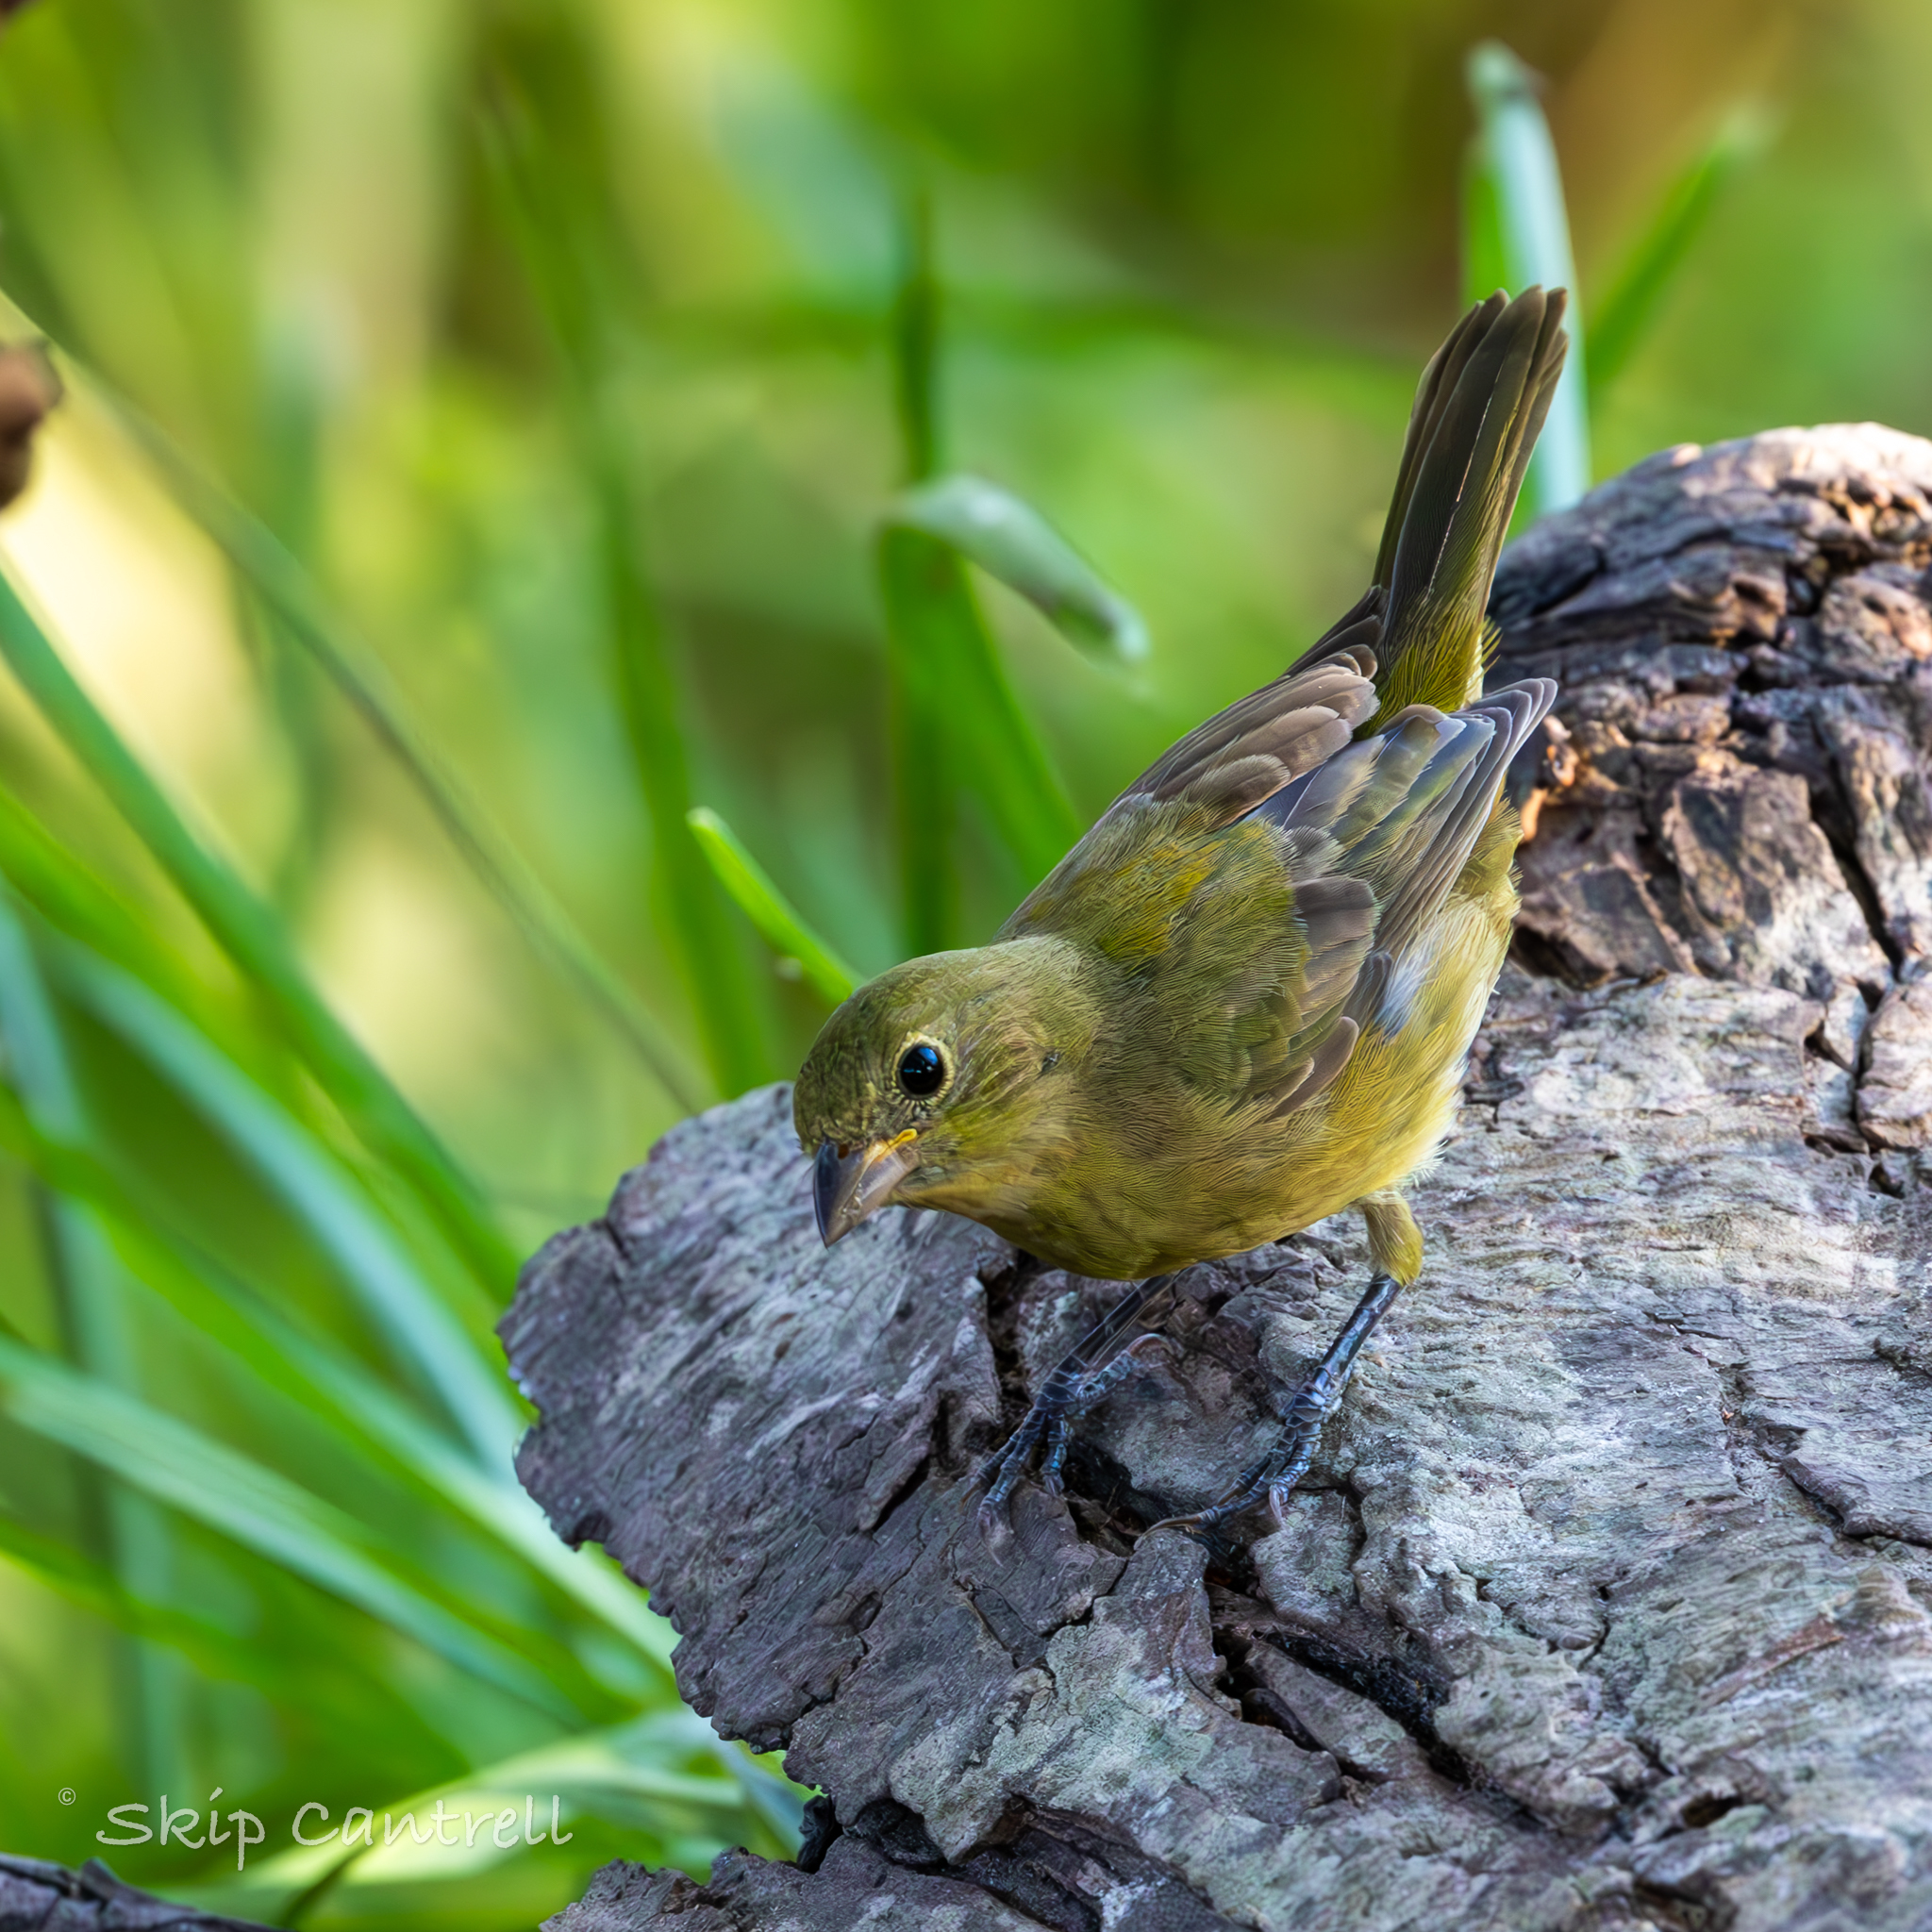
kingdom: Animalia
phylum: Chordata
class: Aves
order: Passeriformes
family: Cardinalidae
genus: Passerina
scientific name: Passerina ciris
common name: Painted bunting
